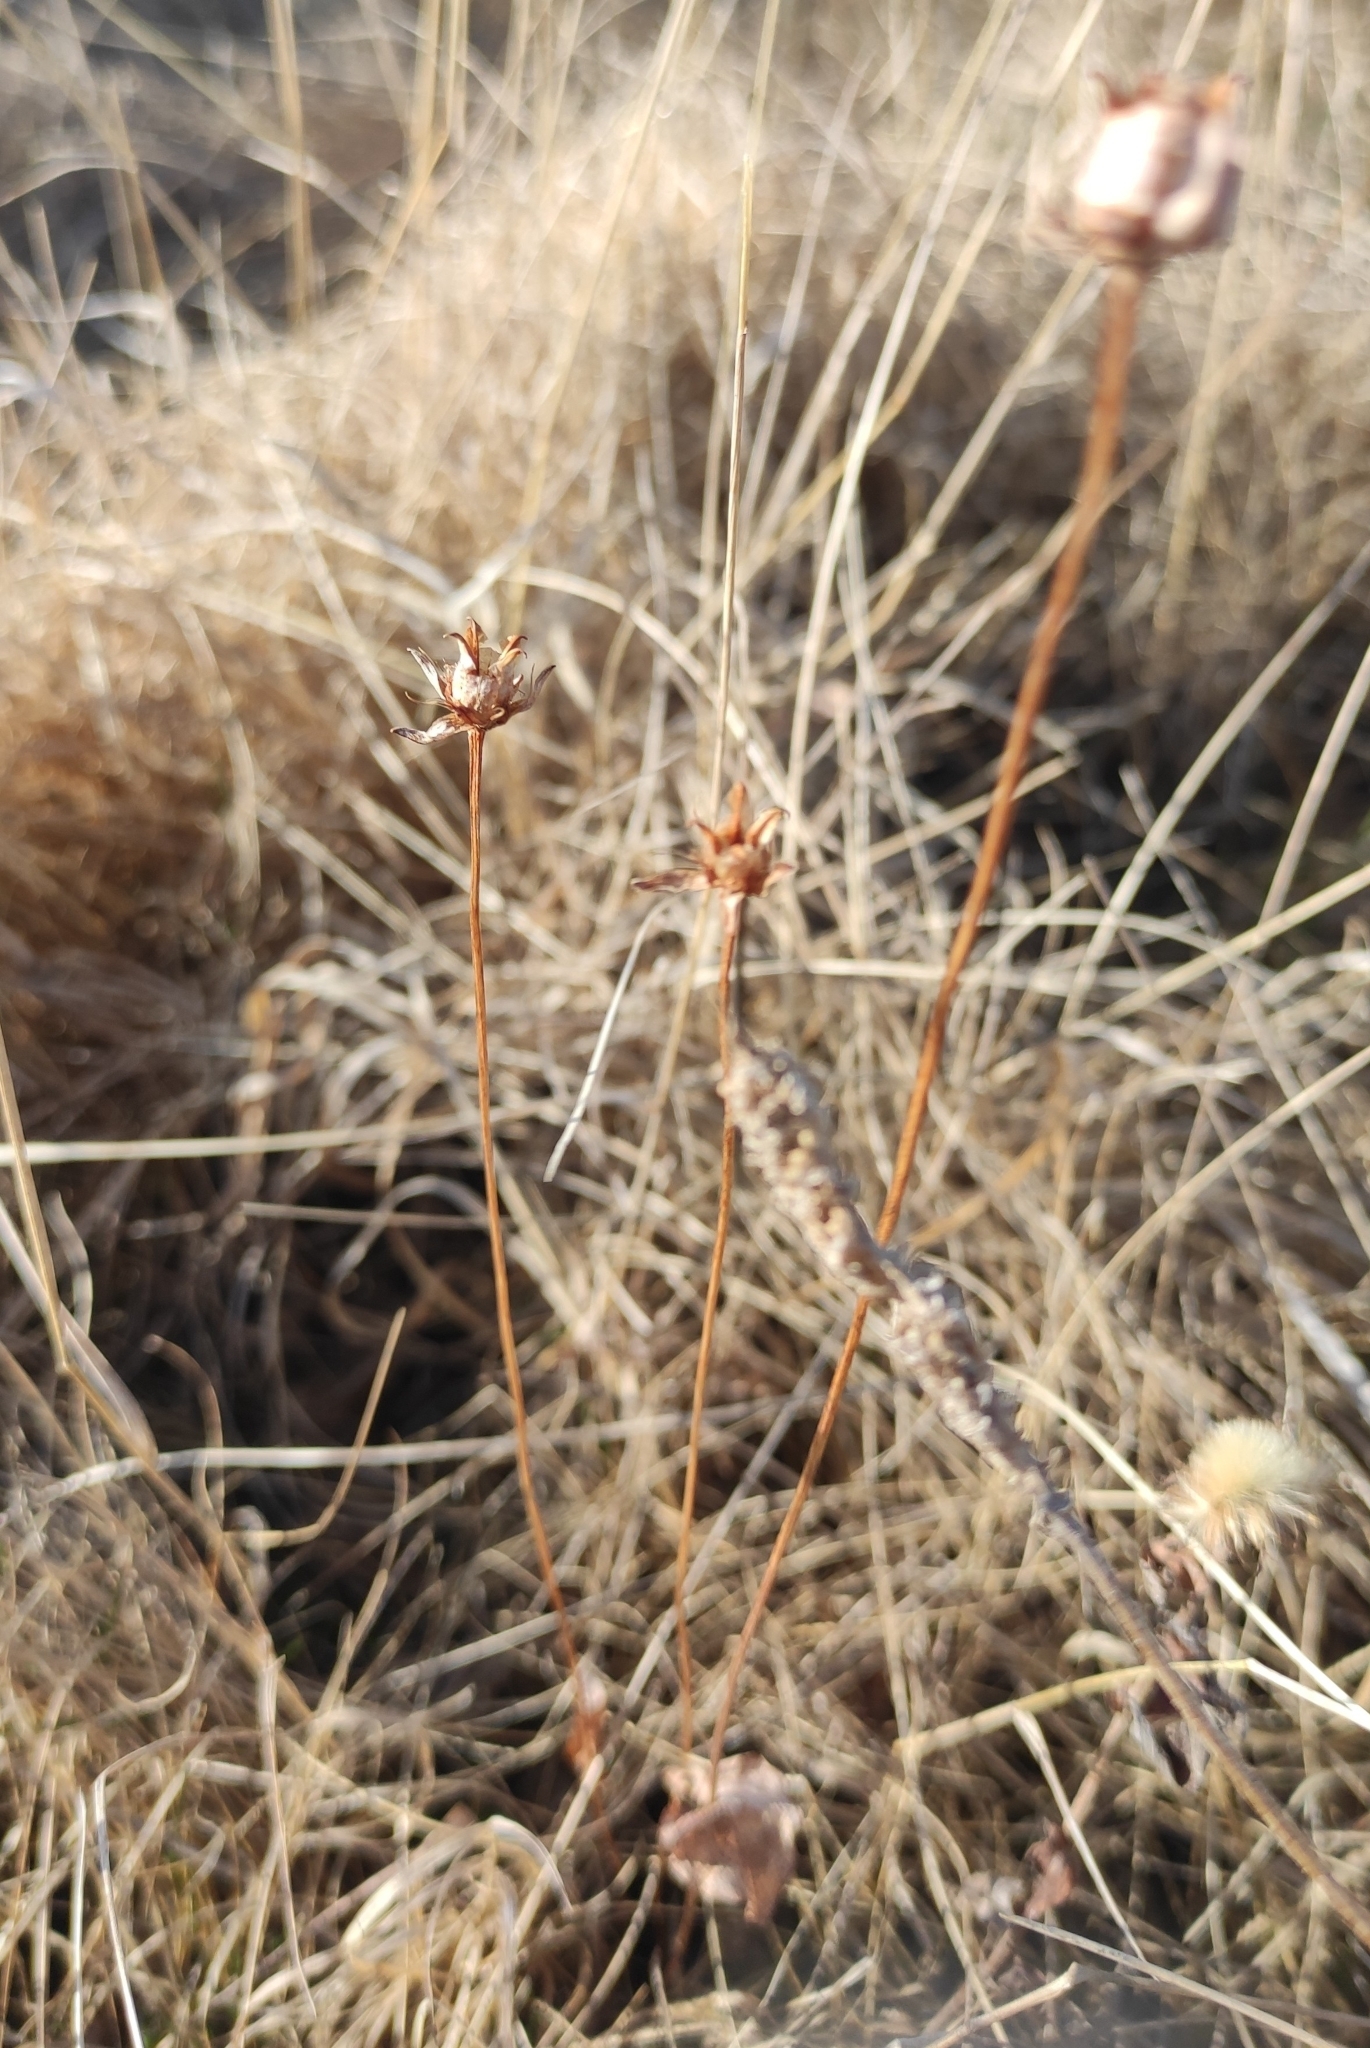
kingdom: Plantae
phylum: Tracheophyta
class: Magnoliopsida
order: Celastrales
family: Parnassiaceae
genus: Parnassia
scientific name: Parnassia palustris
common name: Grass-of-parnassus
